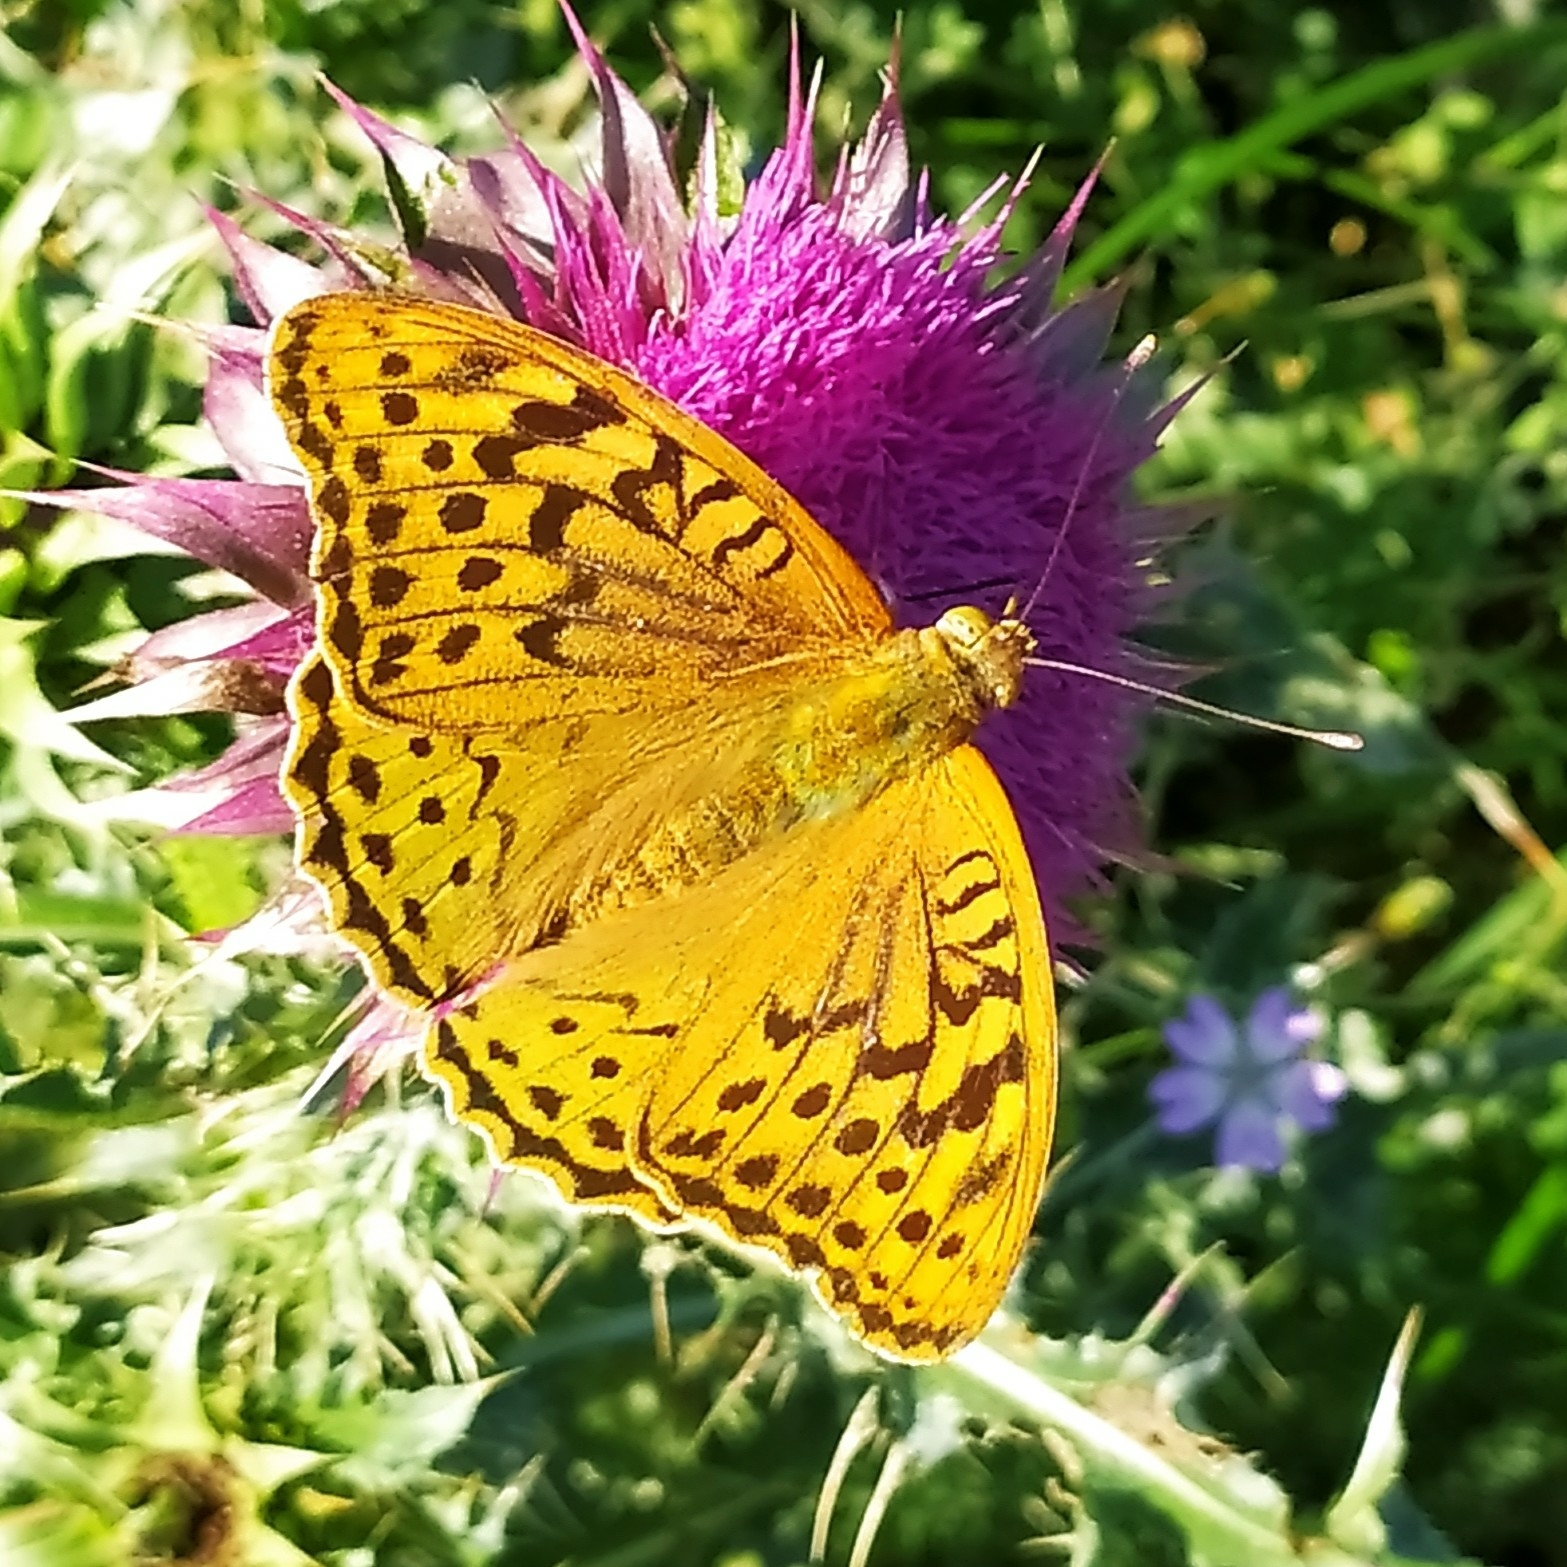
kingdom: Animalia
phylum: Arthropoda
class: Insecta
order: Lepidoptera
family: Nymphalidae
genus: Damora
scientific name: Damora pandora
